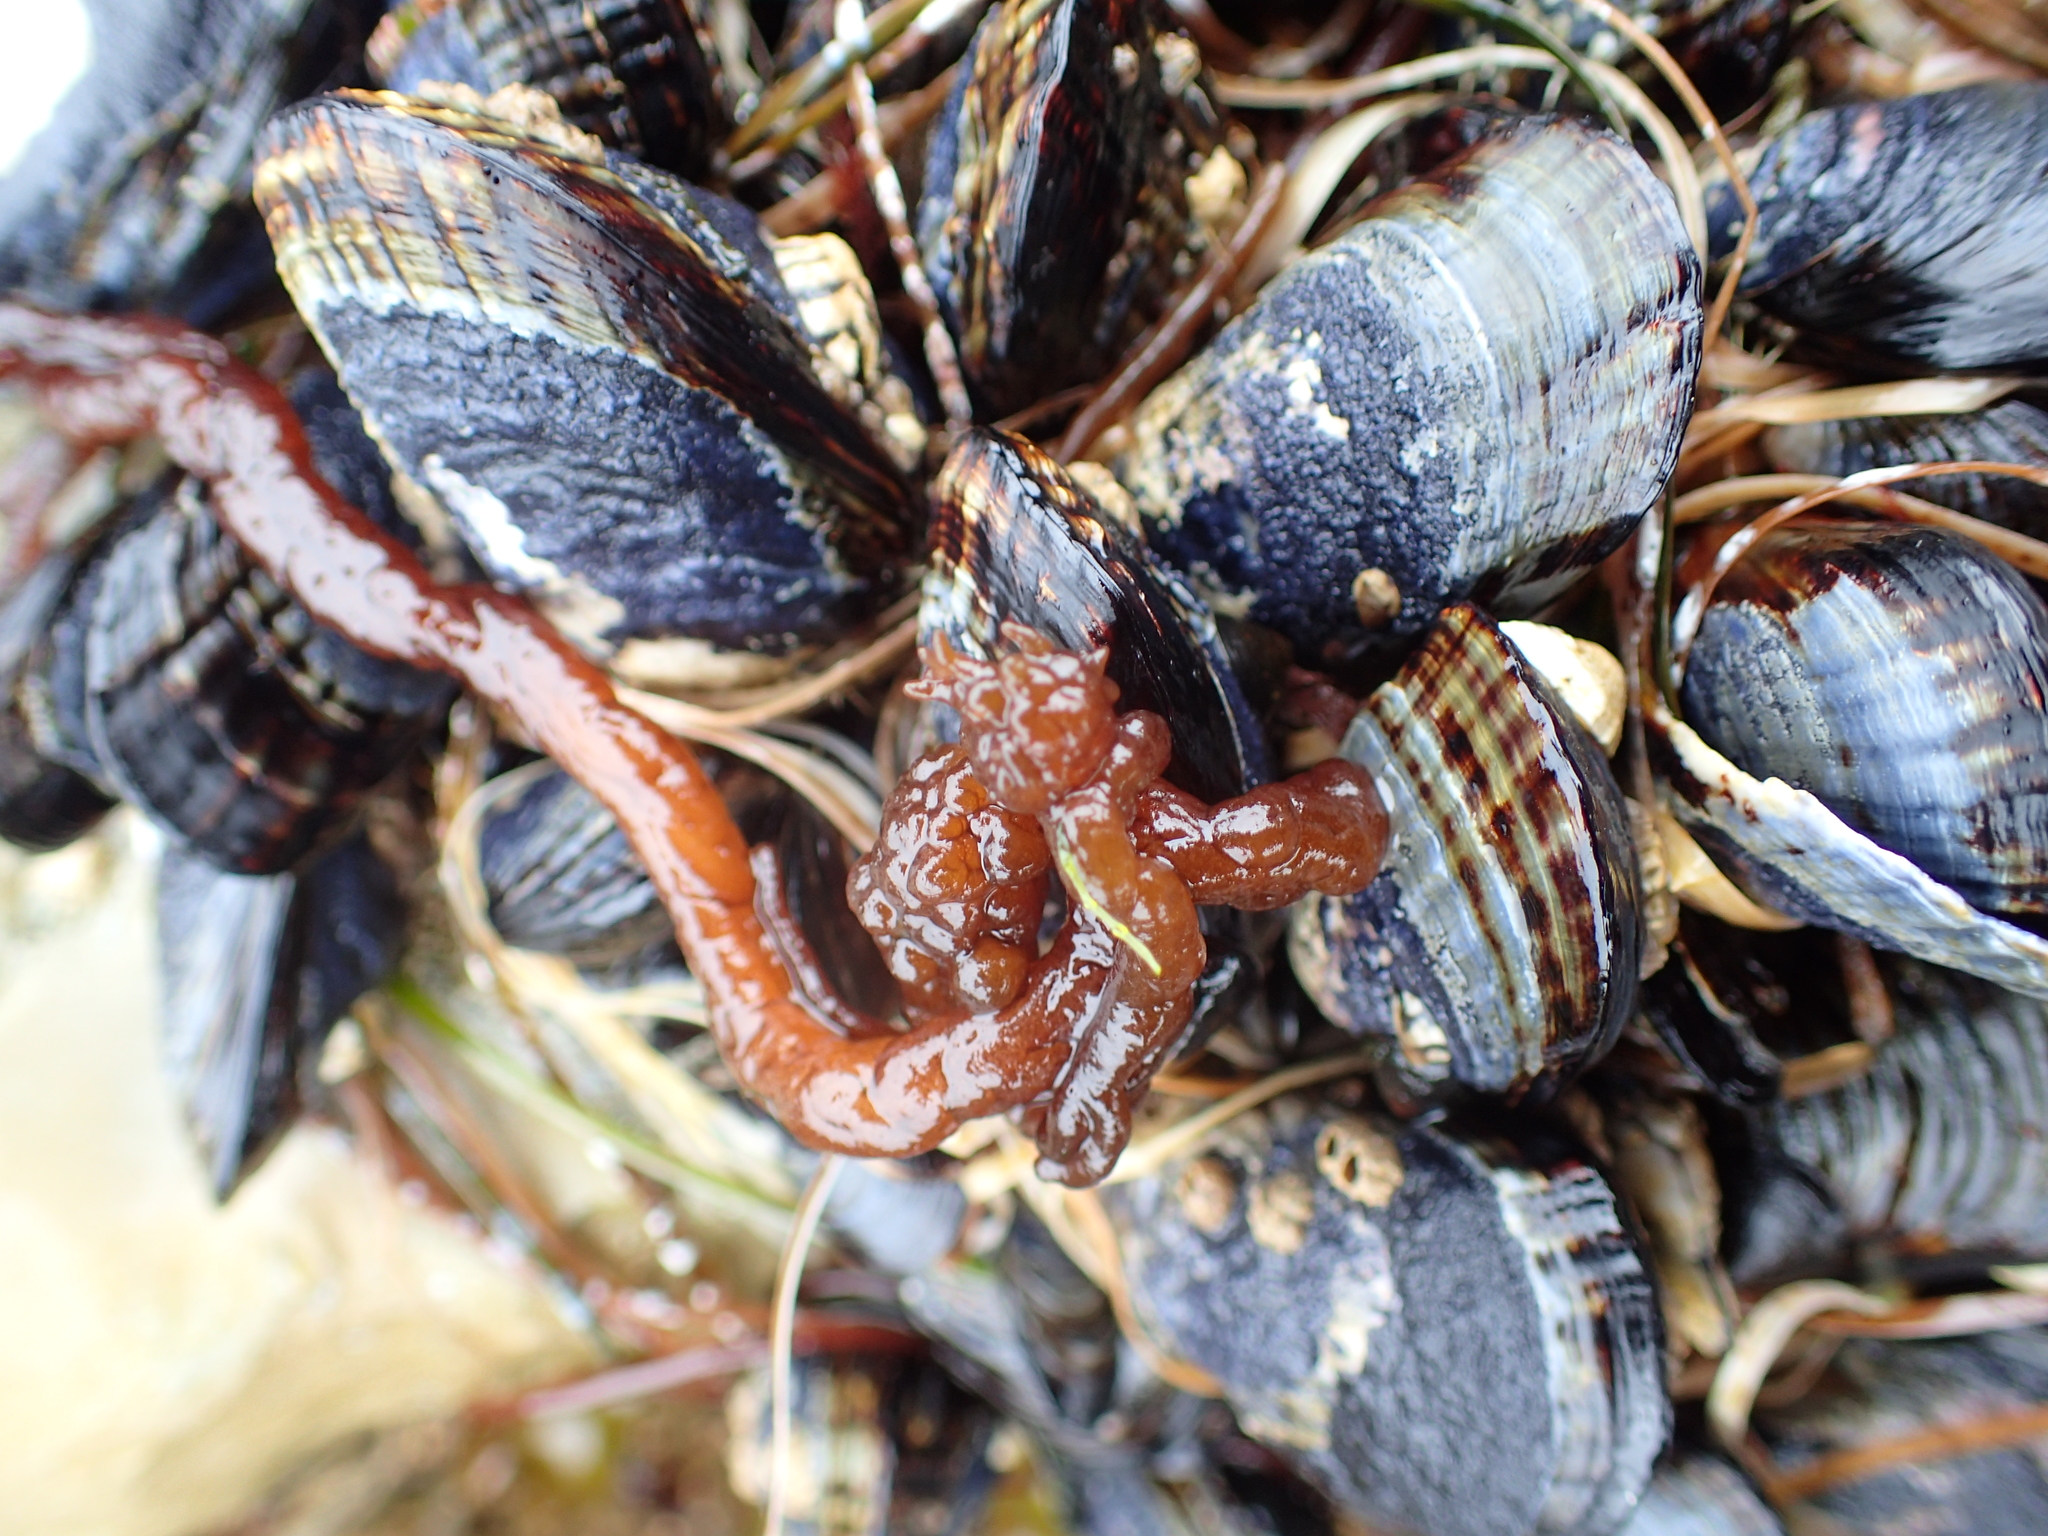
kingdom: Plantae
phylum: Rhodophyta
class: Florideophyceae
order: Nemaliales
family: Nemaliaceae
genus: Nemalion
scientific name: Nemalion elminthoides
